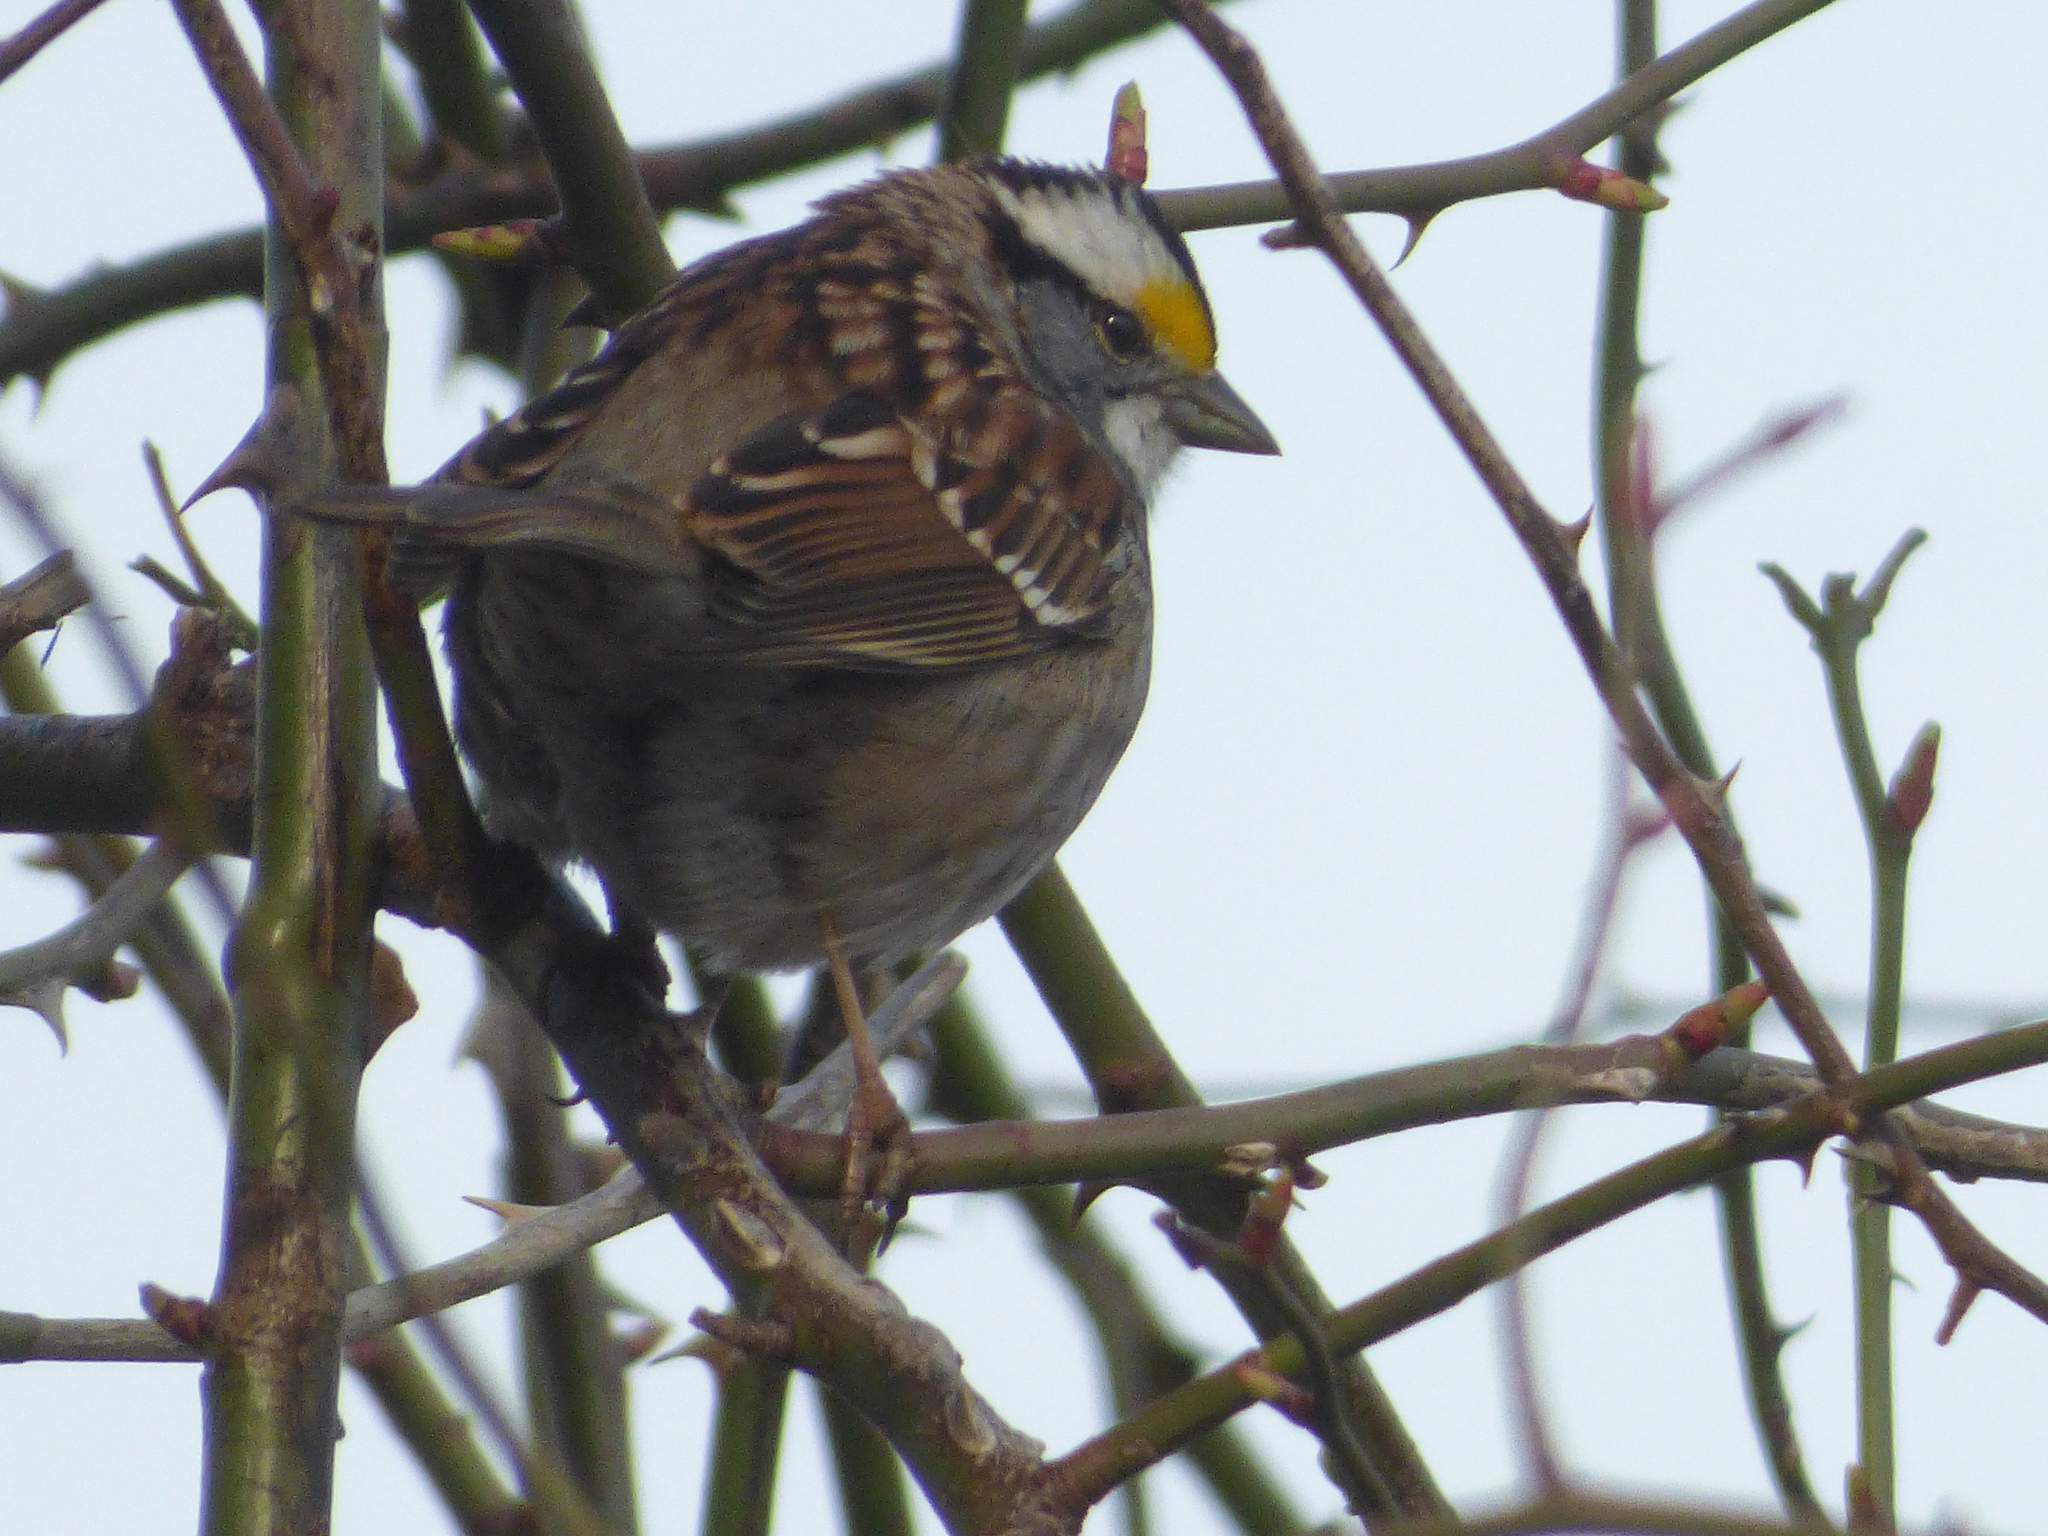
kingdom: Animalia
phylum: Chordata
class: Aves
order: Passeriformes
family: Passerellidae
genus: Zonotrichia
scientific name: Zonotrichia albicollis
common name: White-throated sparrow
